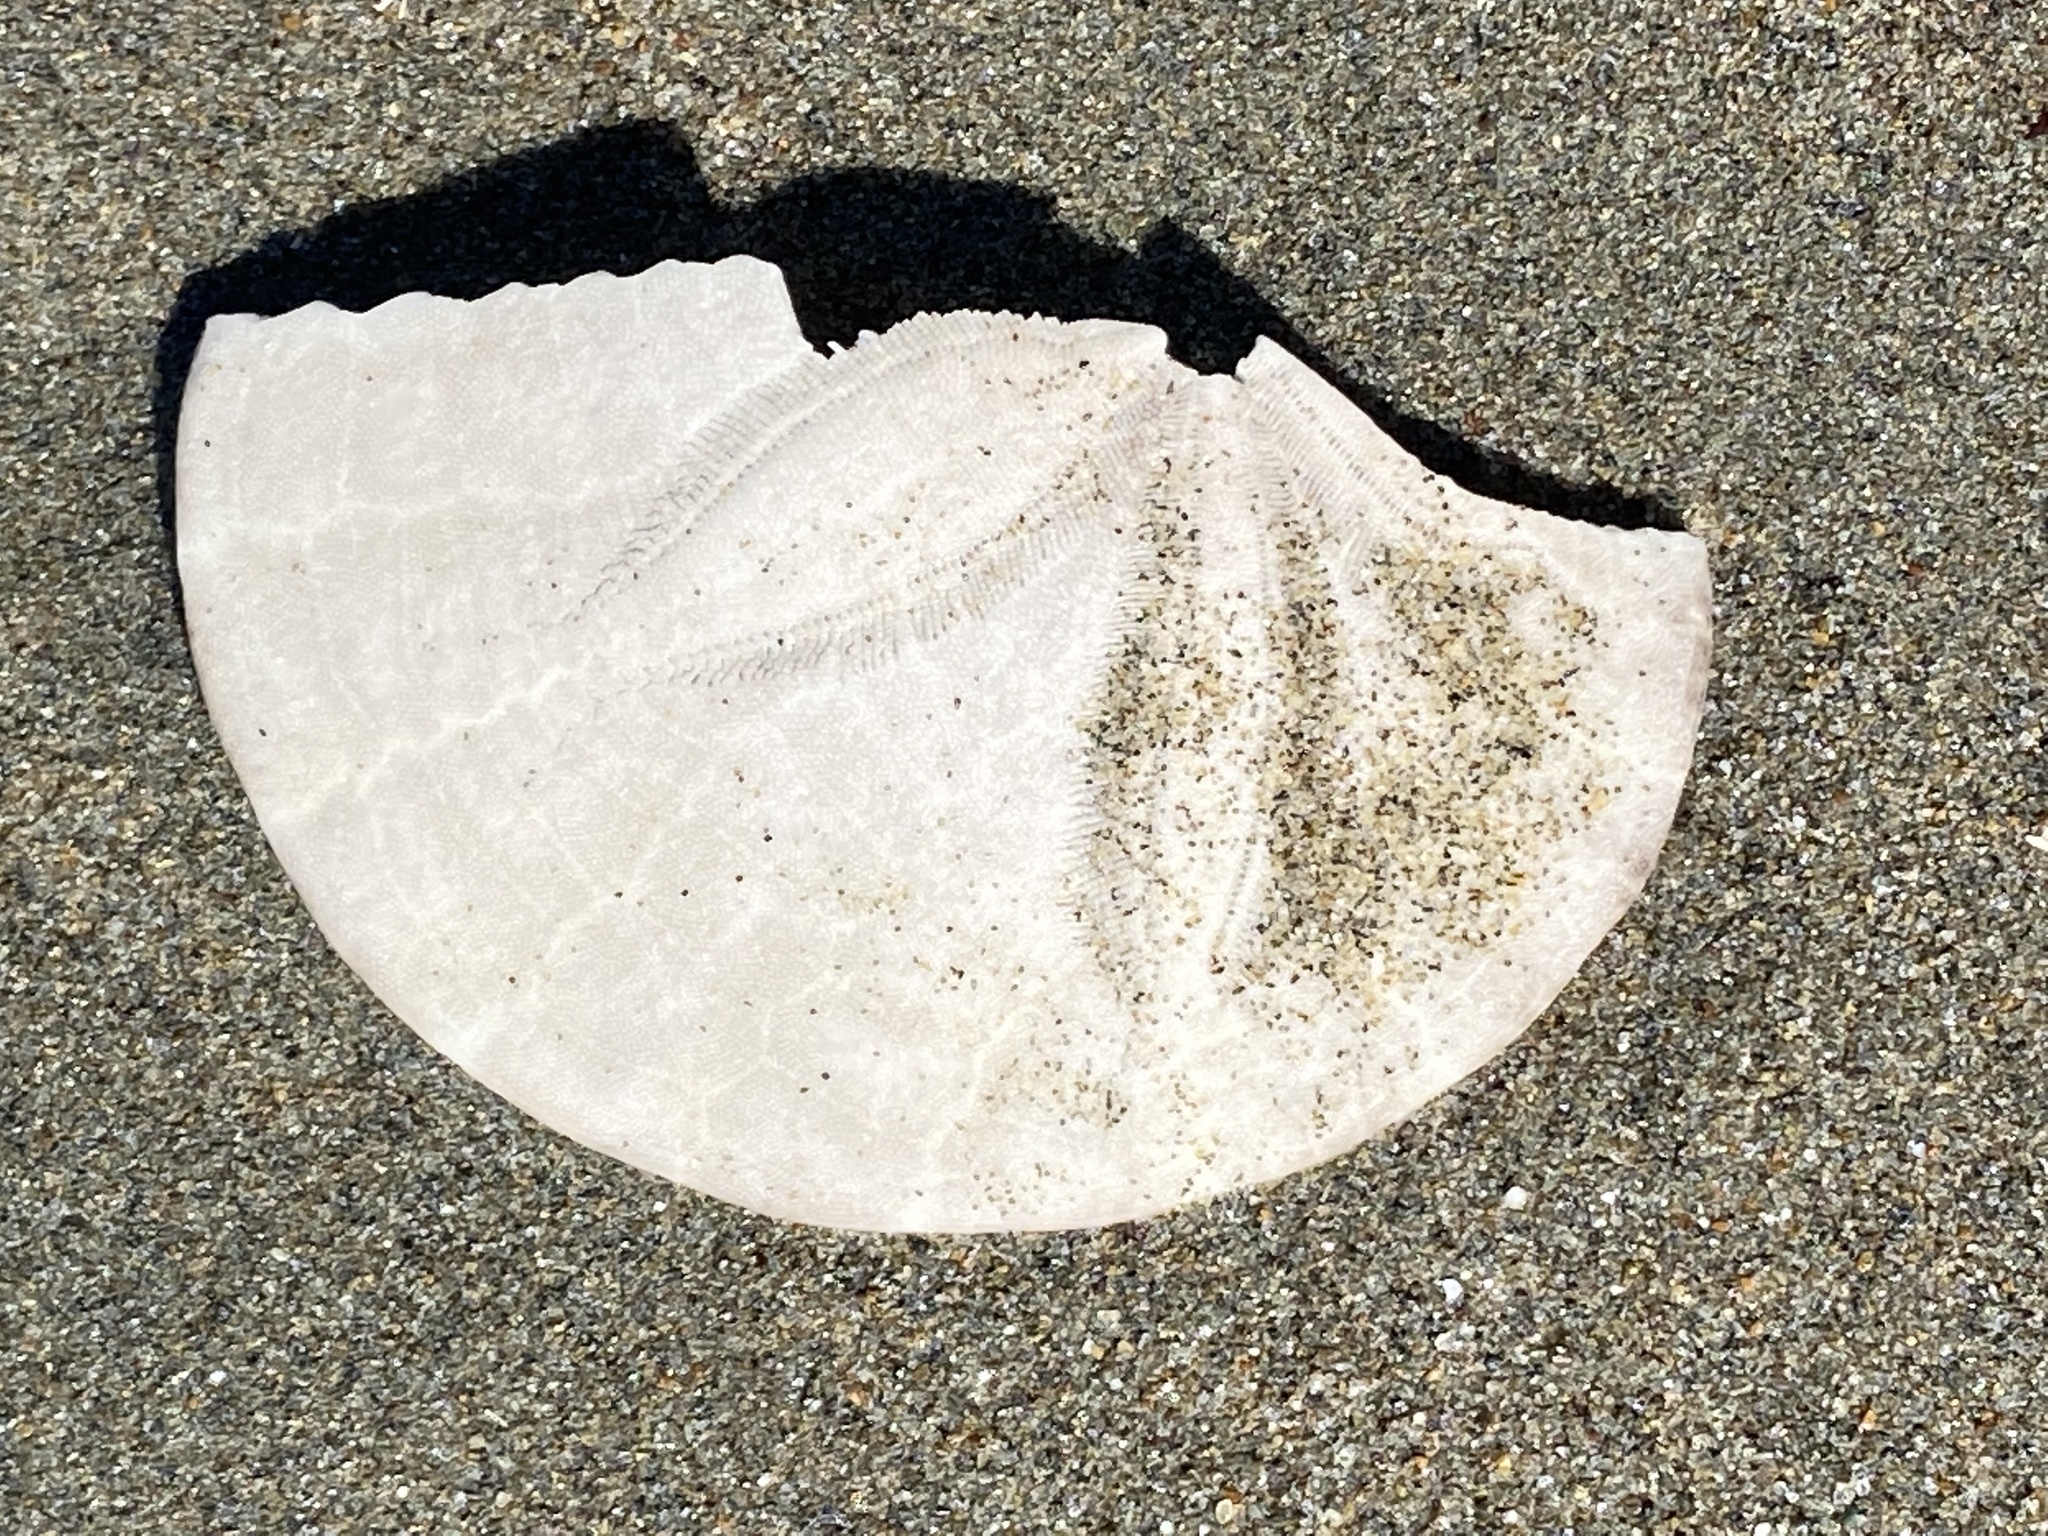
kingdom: Animalia
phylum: Echinodermata
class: Echinoidea
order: Echinolampadacea
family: Dendrasteridae
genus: Dendraster
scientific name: Dendraster excentricus
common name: Eccentric sand dollar sea urchin
